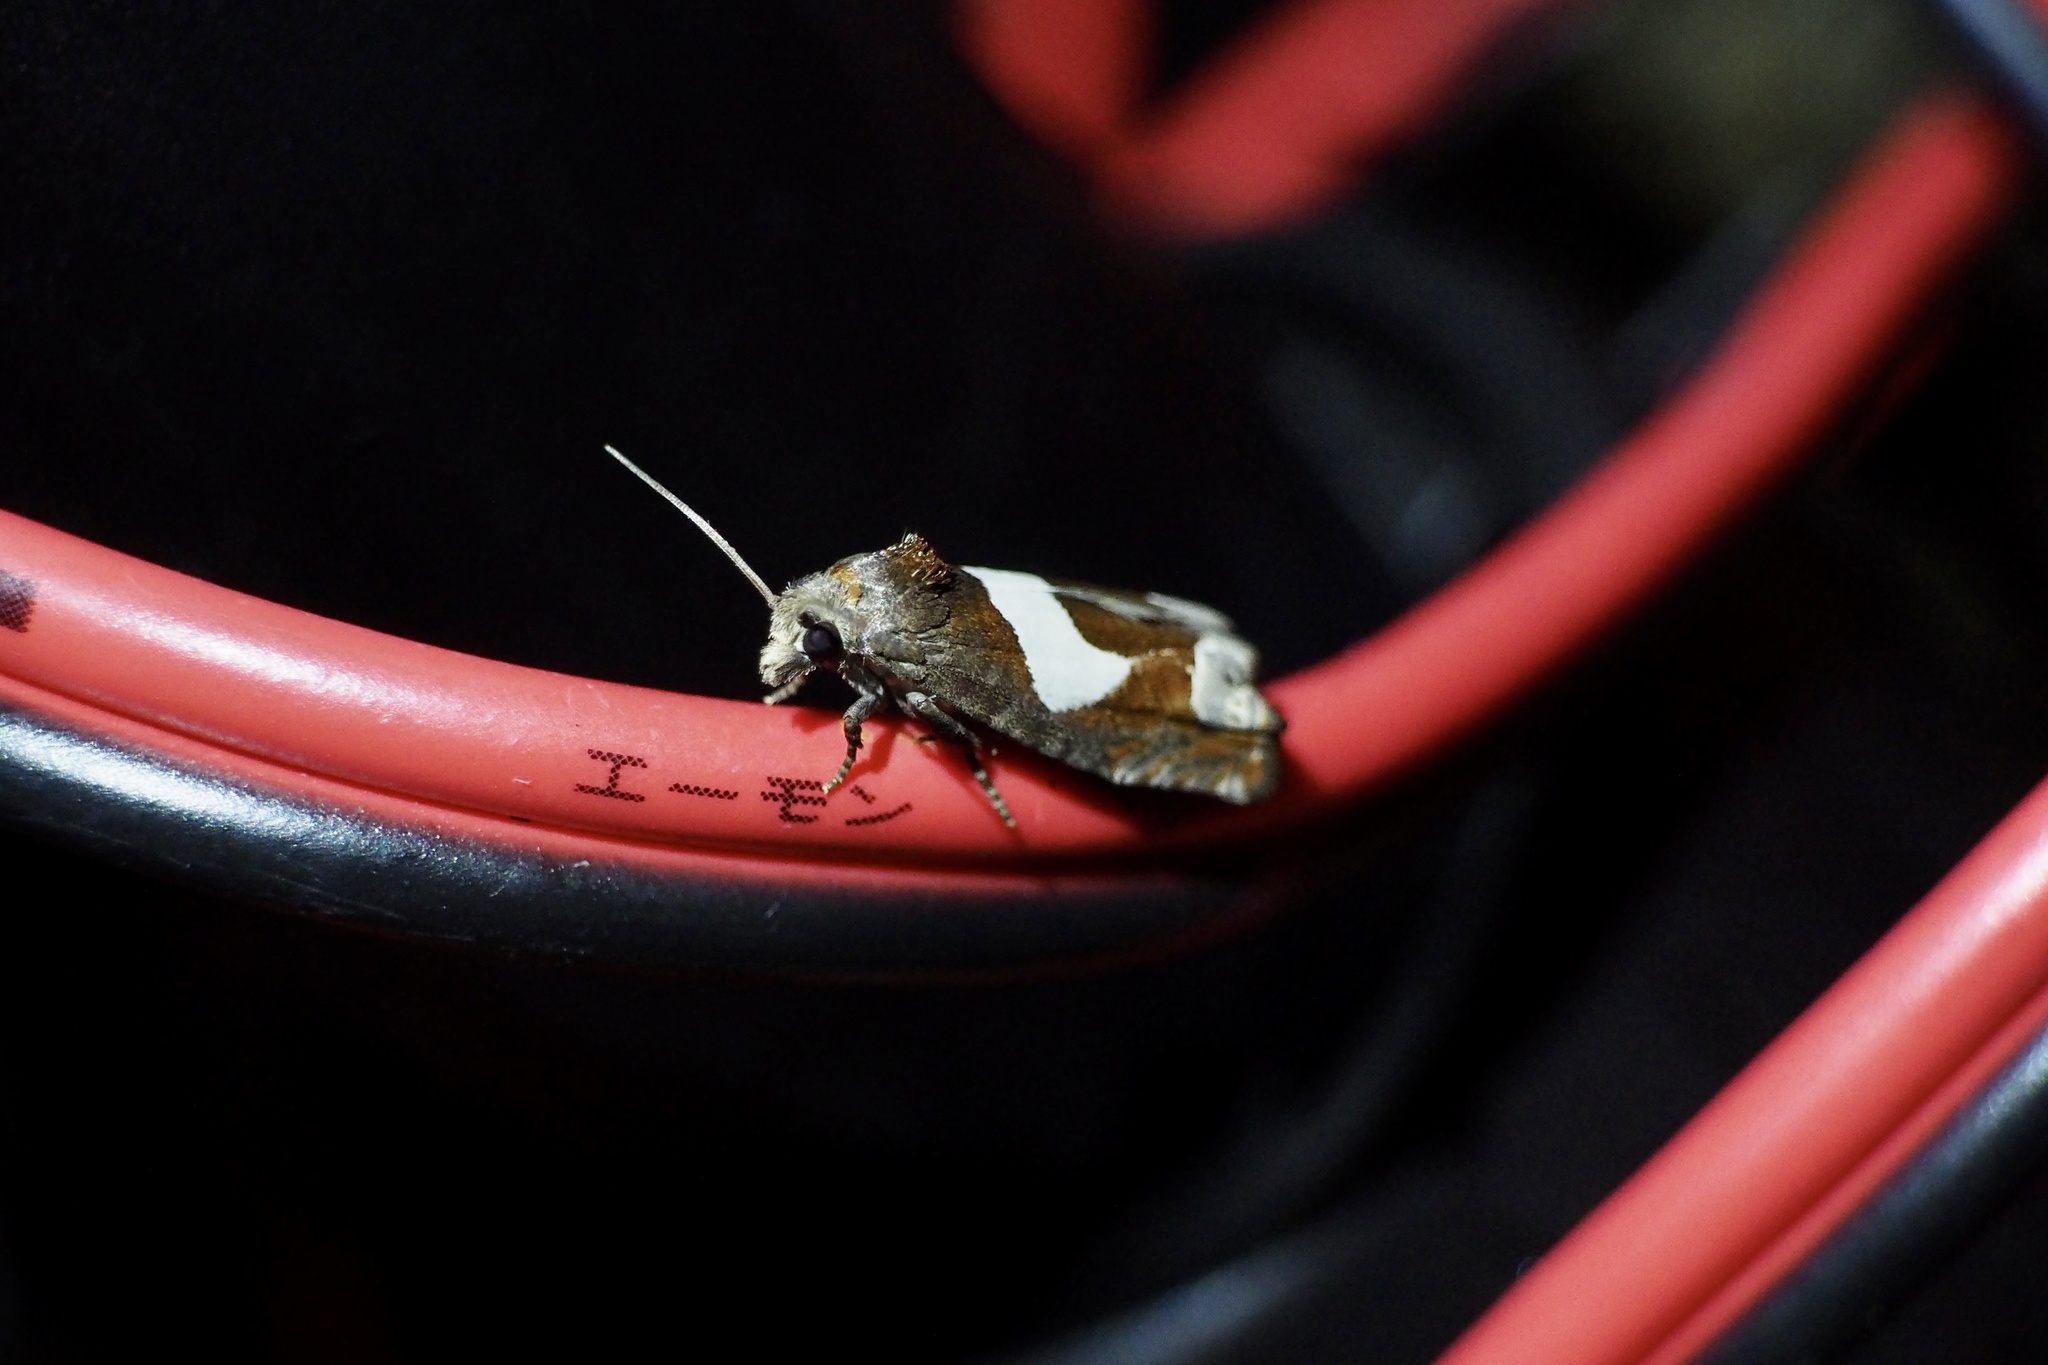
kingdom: Animalia
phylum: Arthropoda
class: Insecta
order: Lepidoptera
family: Tortricidae
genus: Epiblema
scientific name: Epiblema foenella
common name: White-foot bell
